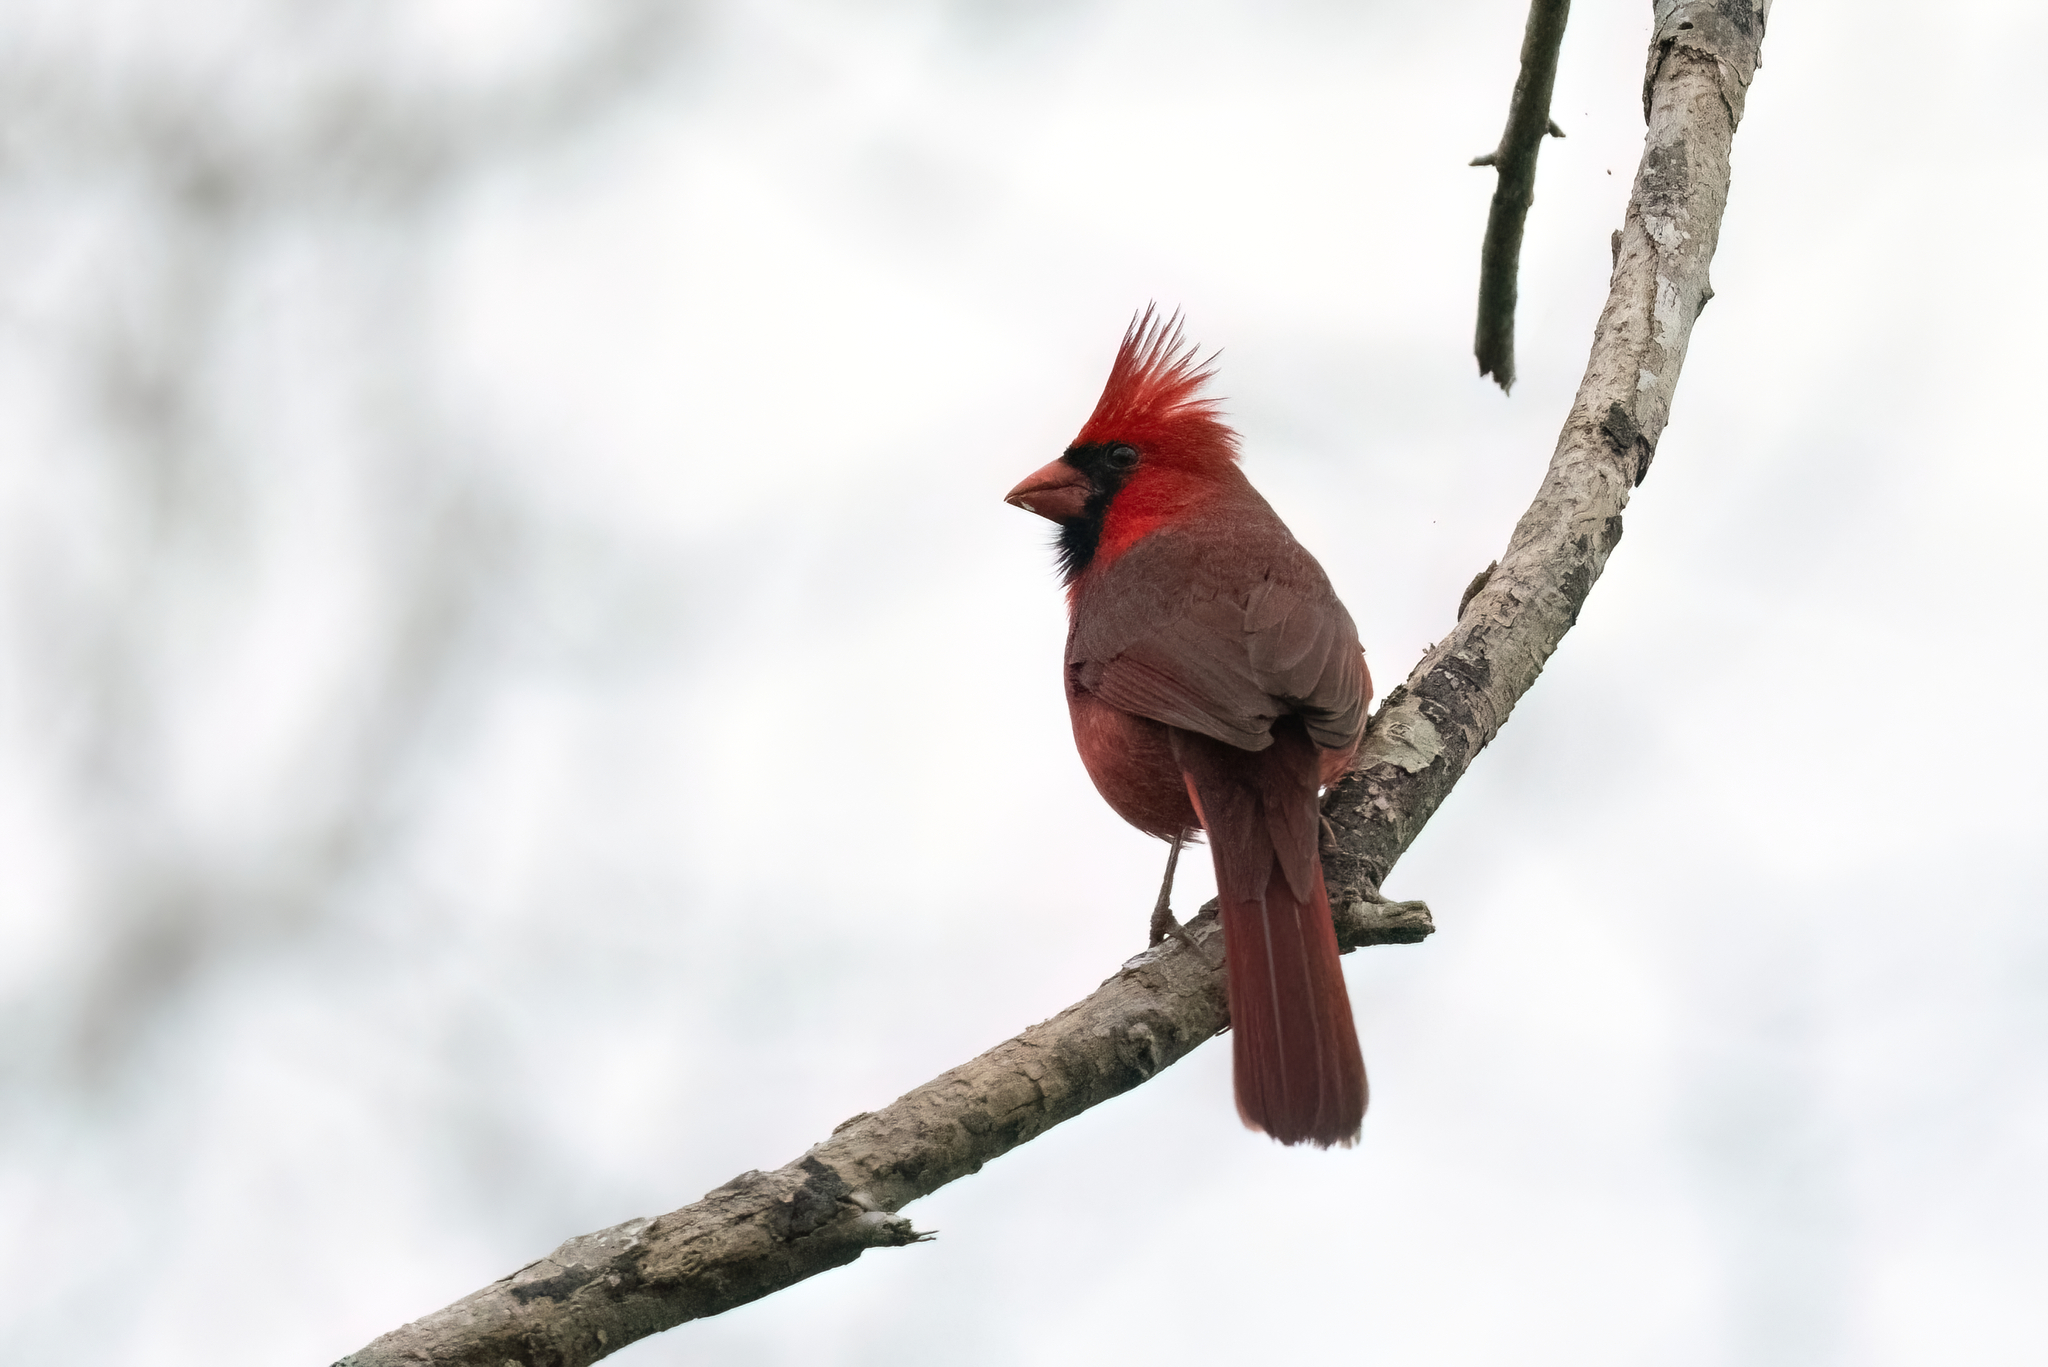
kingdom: Animalia
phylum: Chordata
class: Aves
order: Passeriformes
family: Cardinalidae
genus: Cardinalis
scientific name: Cardinalis cardinalis
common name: Northern cardinal
